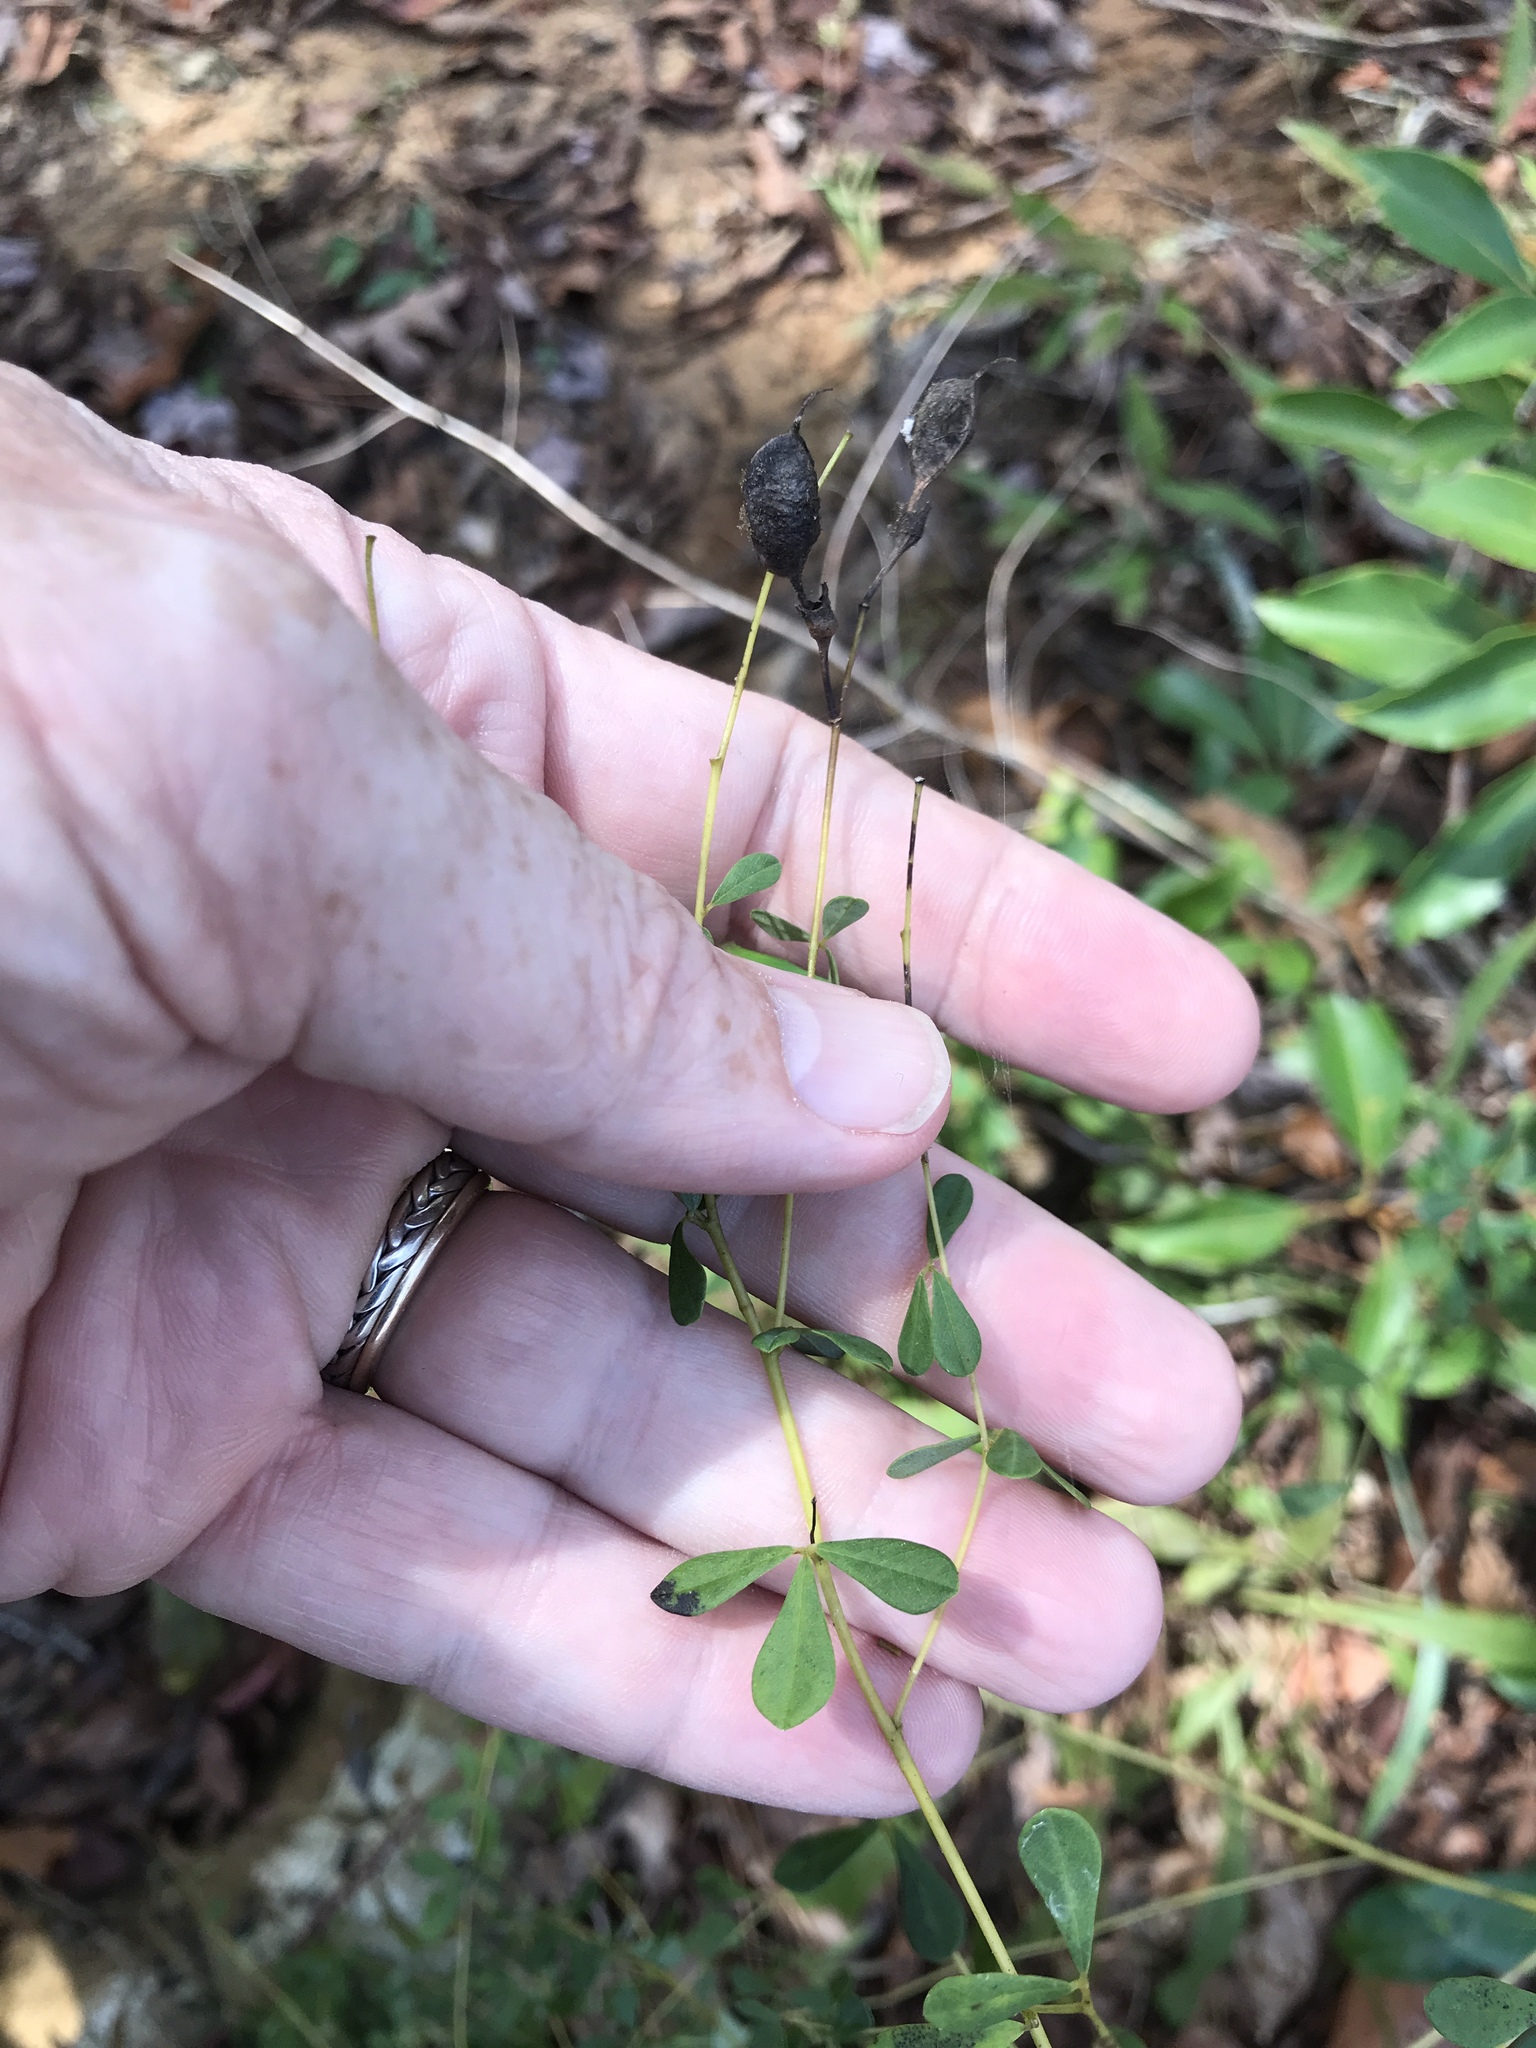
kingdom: Plantae
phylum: Tracheophyta
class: Magnoliopsida
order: Fabales
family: Fabaceae
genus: Baptisia
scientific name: Baptisia tinctoria
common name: Wild indigo
